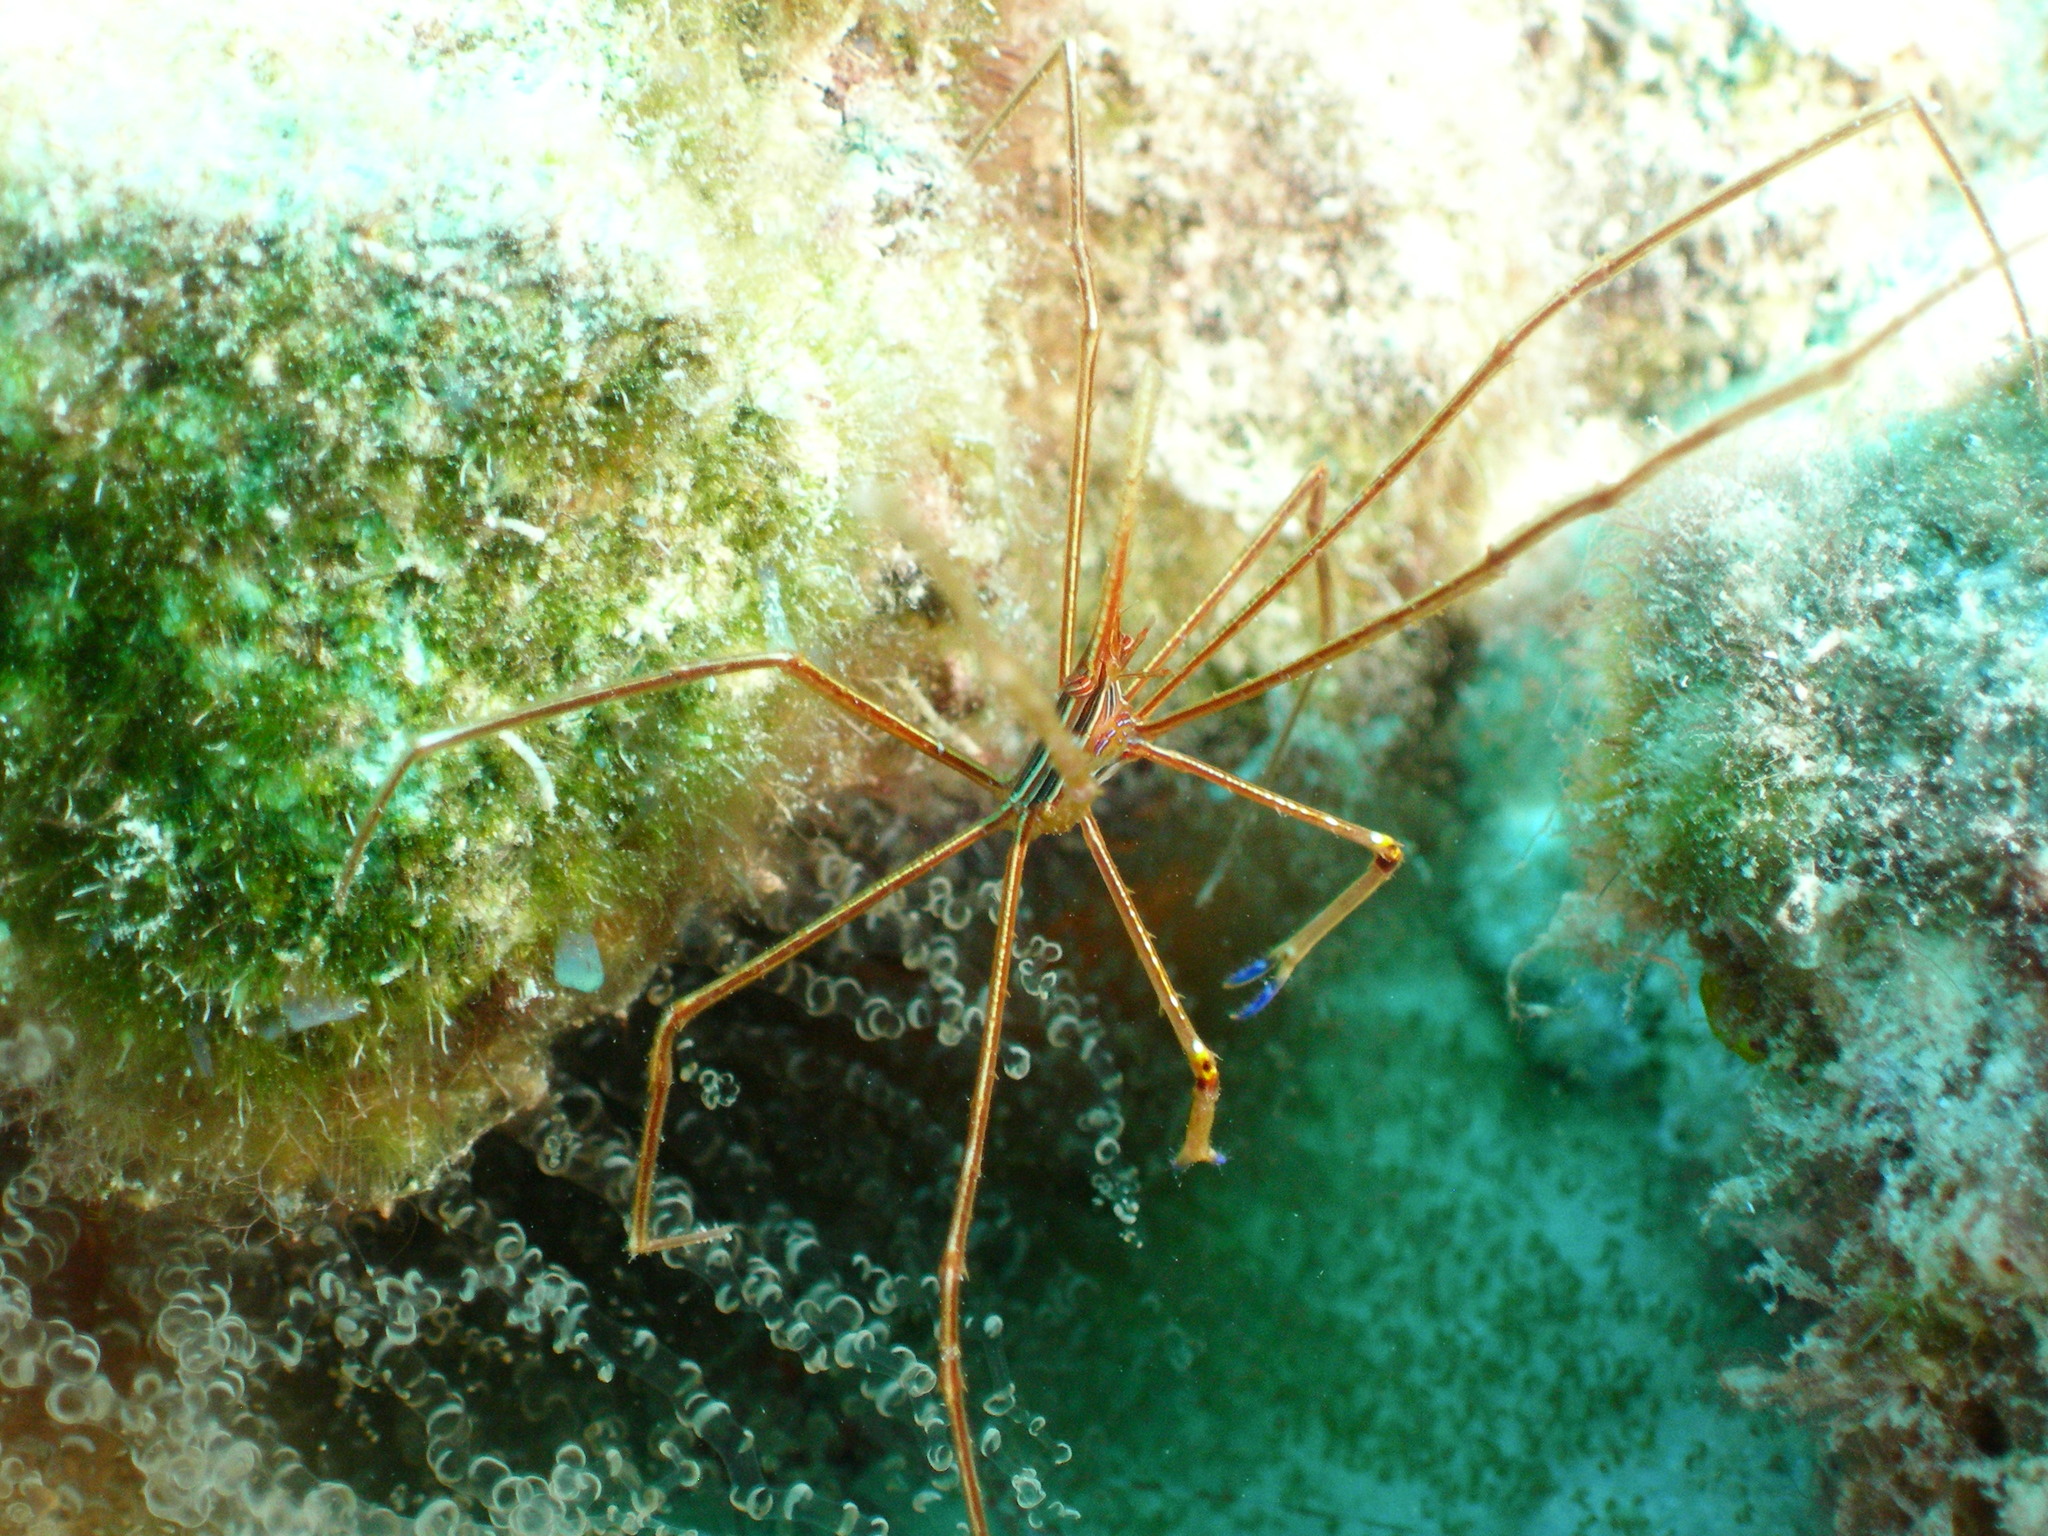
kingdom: Animalia
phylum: Arthropoda
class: Malacostraca
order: Decapoda
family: Inachoididae
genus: Stenorhynchus
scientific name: Stenorhynchus seticornis
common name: Arrow crab
